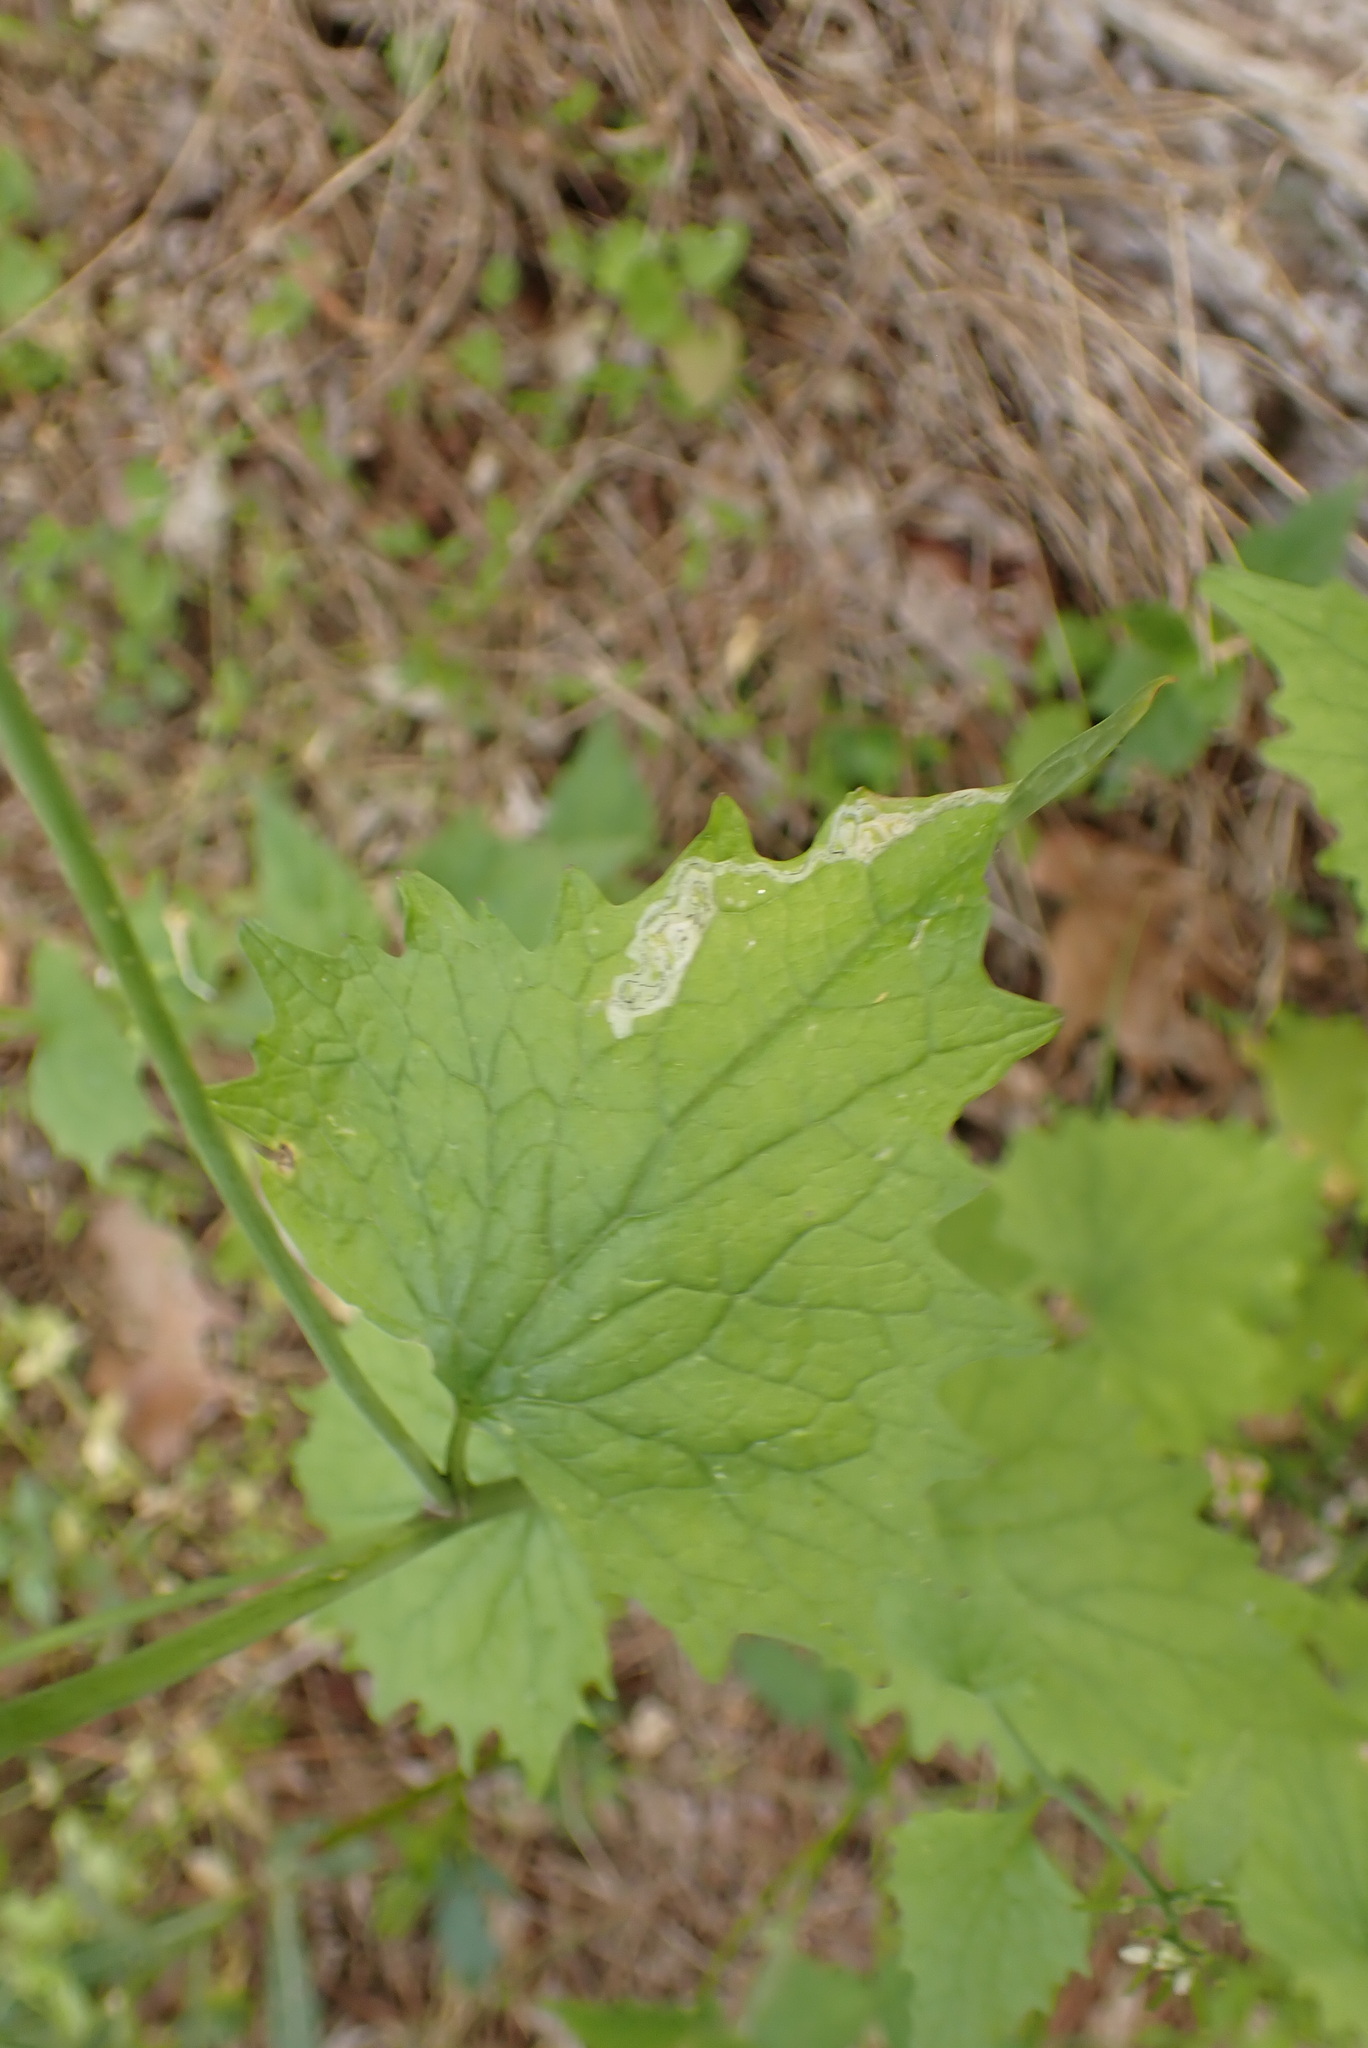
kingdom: Animalia
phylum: Arthropoda
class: Insecta
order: Diptera
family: Agromyzidae
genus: Liriomyza
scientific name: Liriomyza brassicae
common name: Serpentine leaf miner
